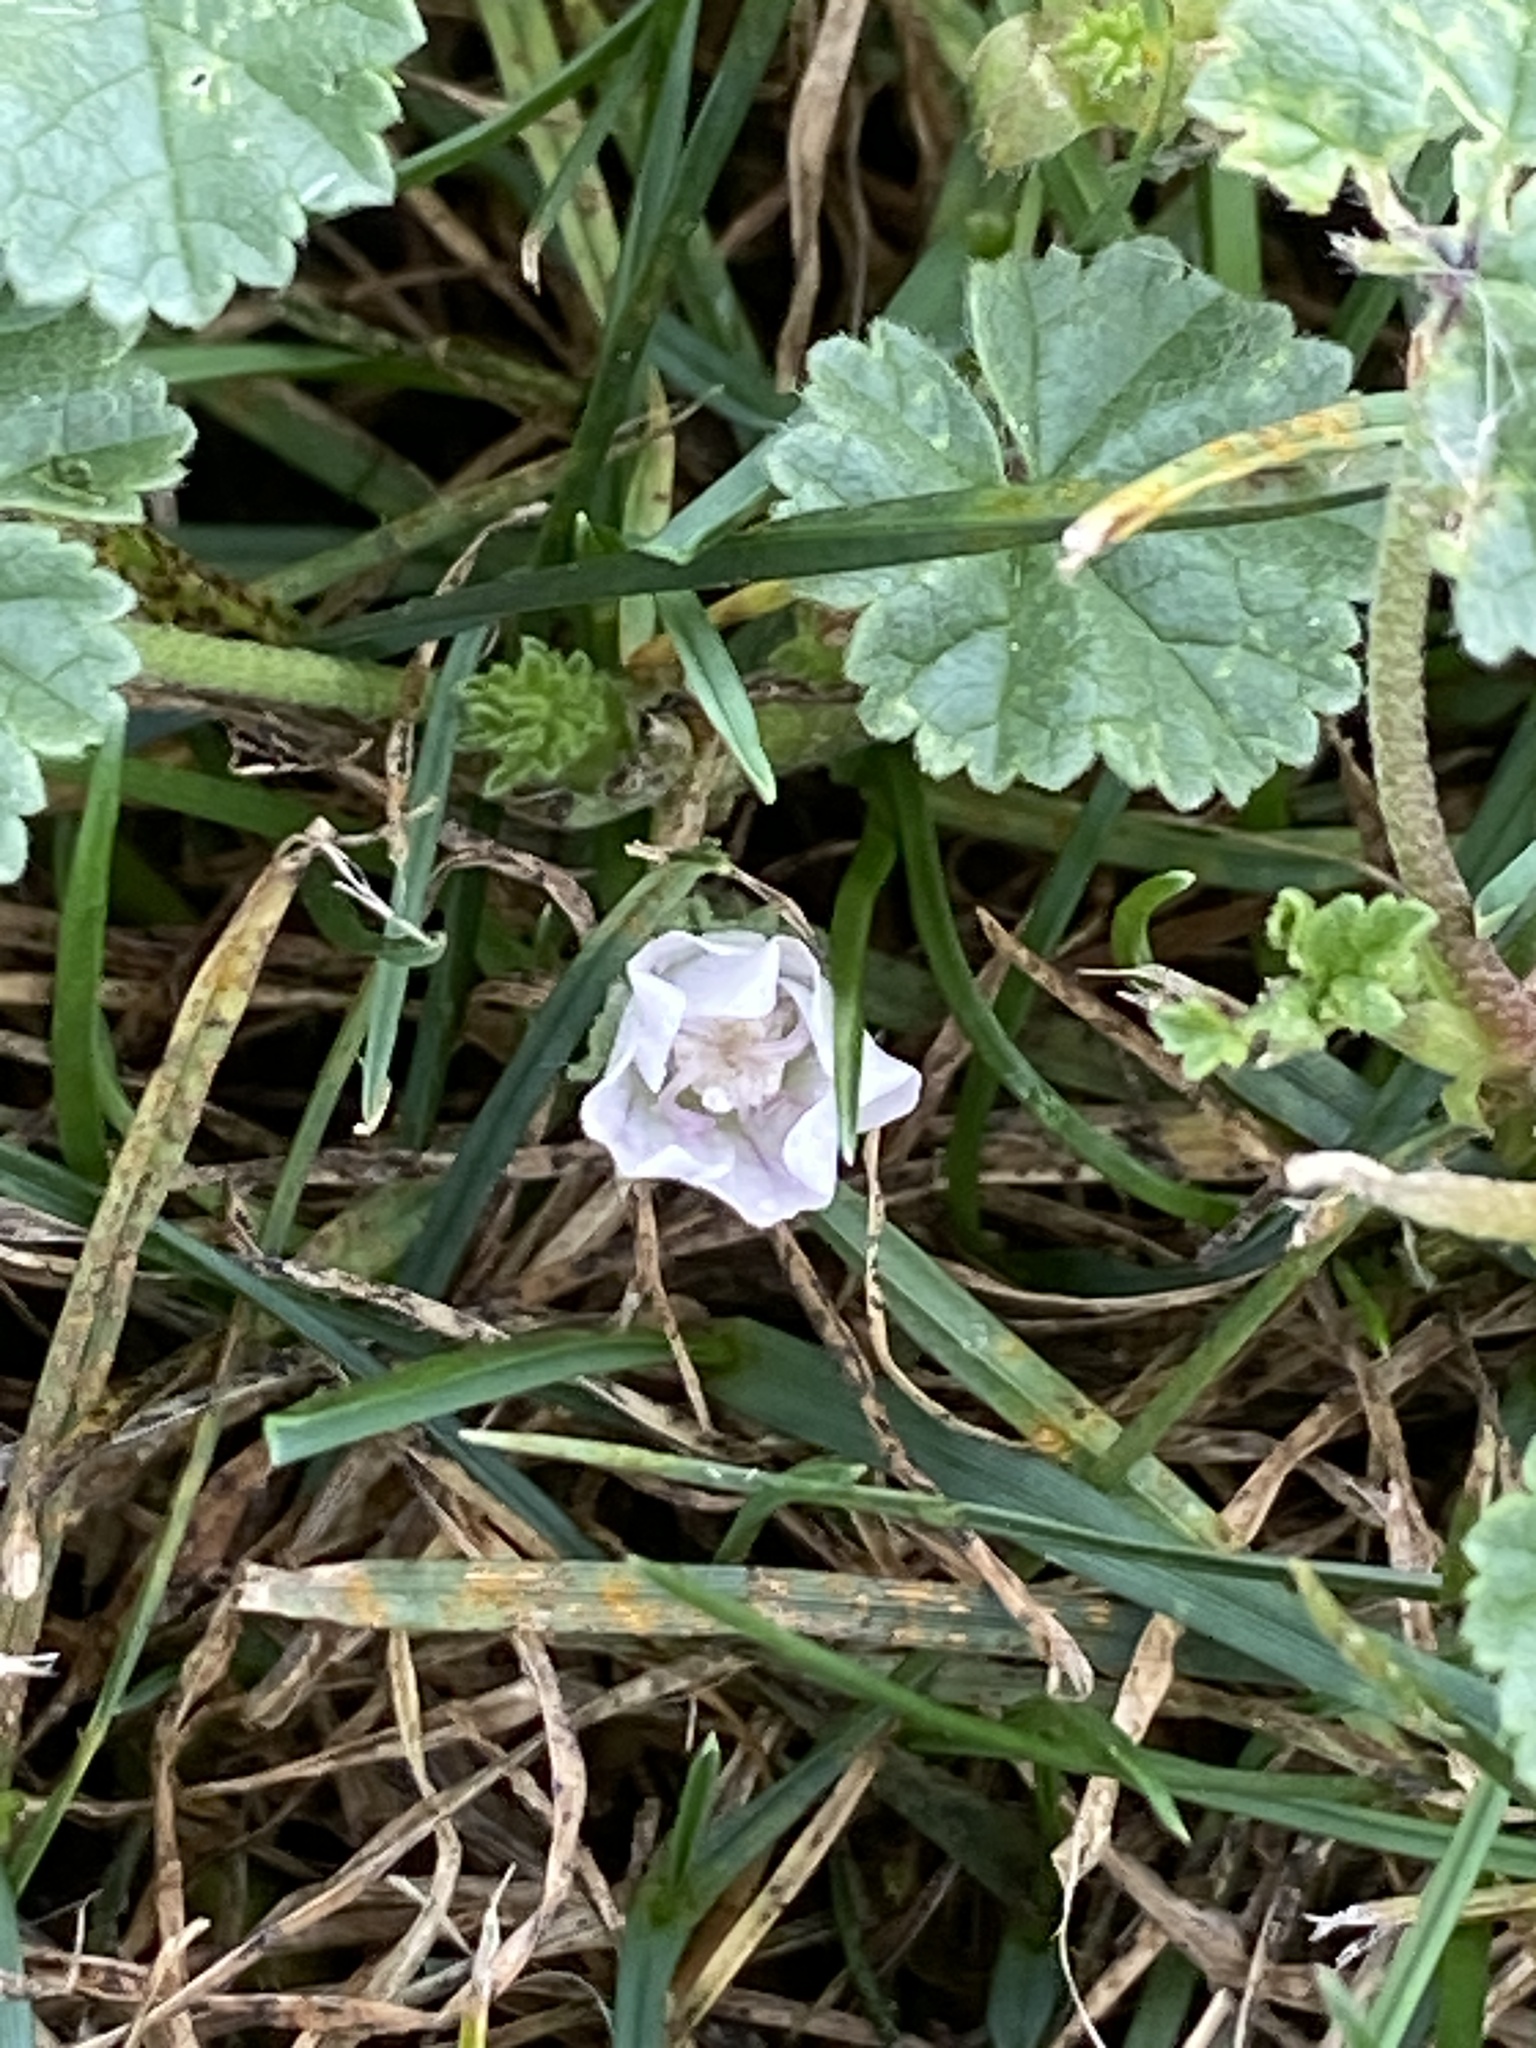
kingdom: Plantae
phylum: Tracheophyta
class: Magnoliopsida
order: Malvales
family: Malvaceae
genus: Malva
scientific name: Malva neglecta
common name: Common mallow
